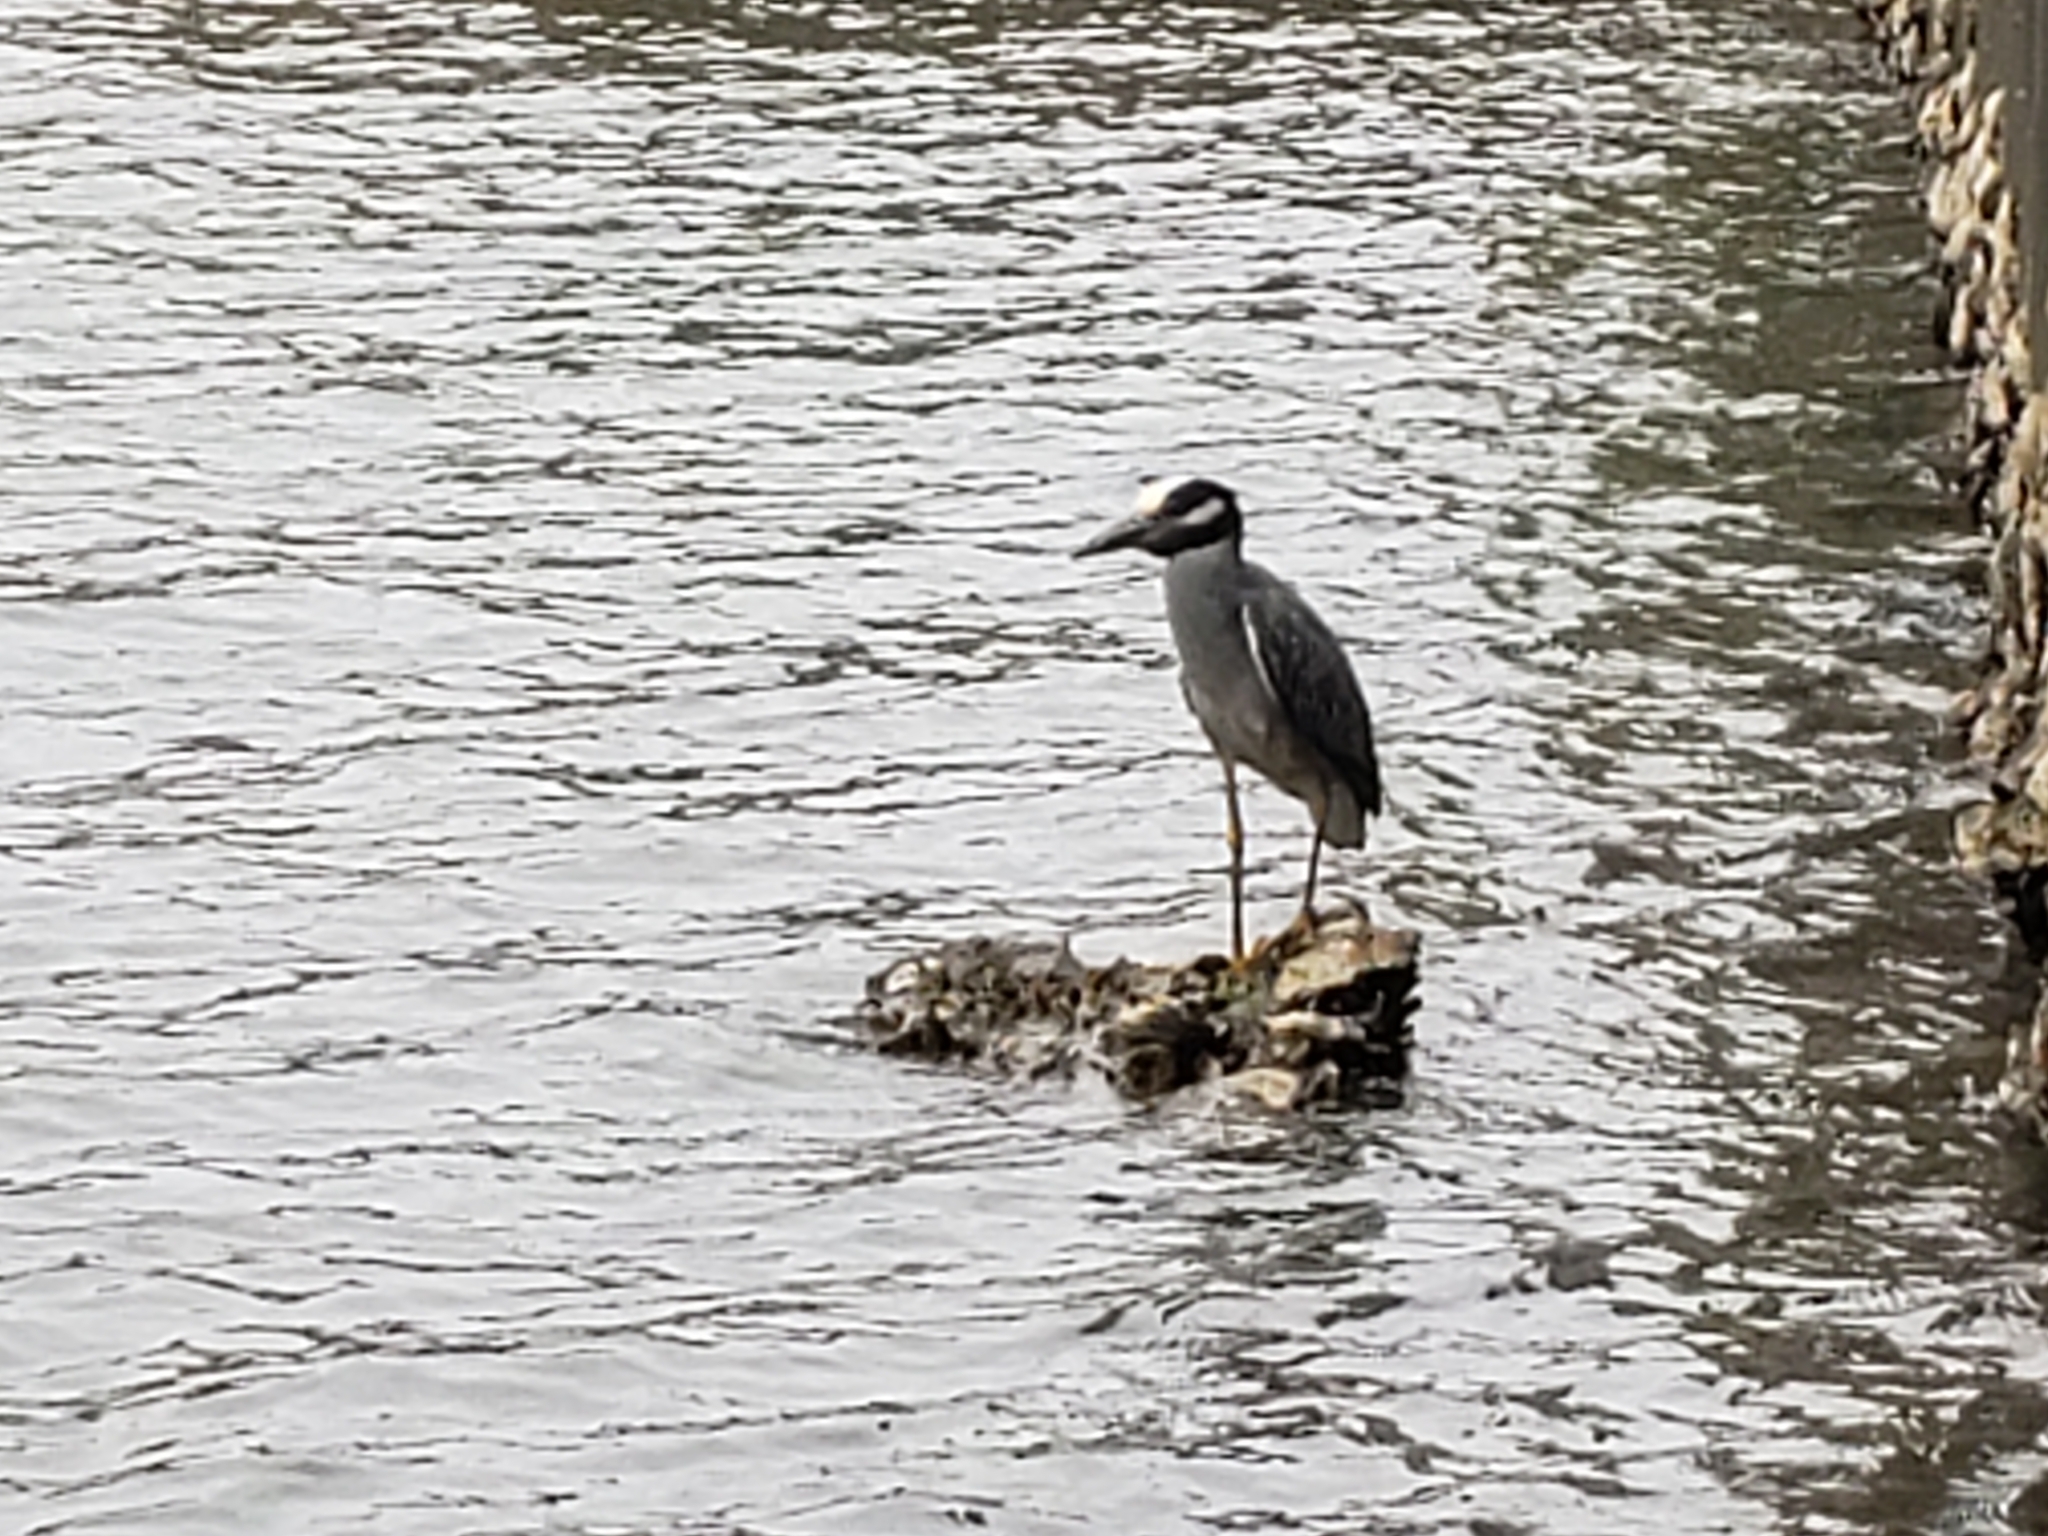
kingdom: Animalia
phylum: Chordata
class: Aves
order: Pelecaniformes
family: Ardeidae
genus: Nyctanassa
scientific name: Nyctanassa violacea
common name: Yellow-crowned night heron
